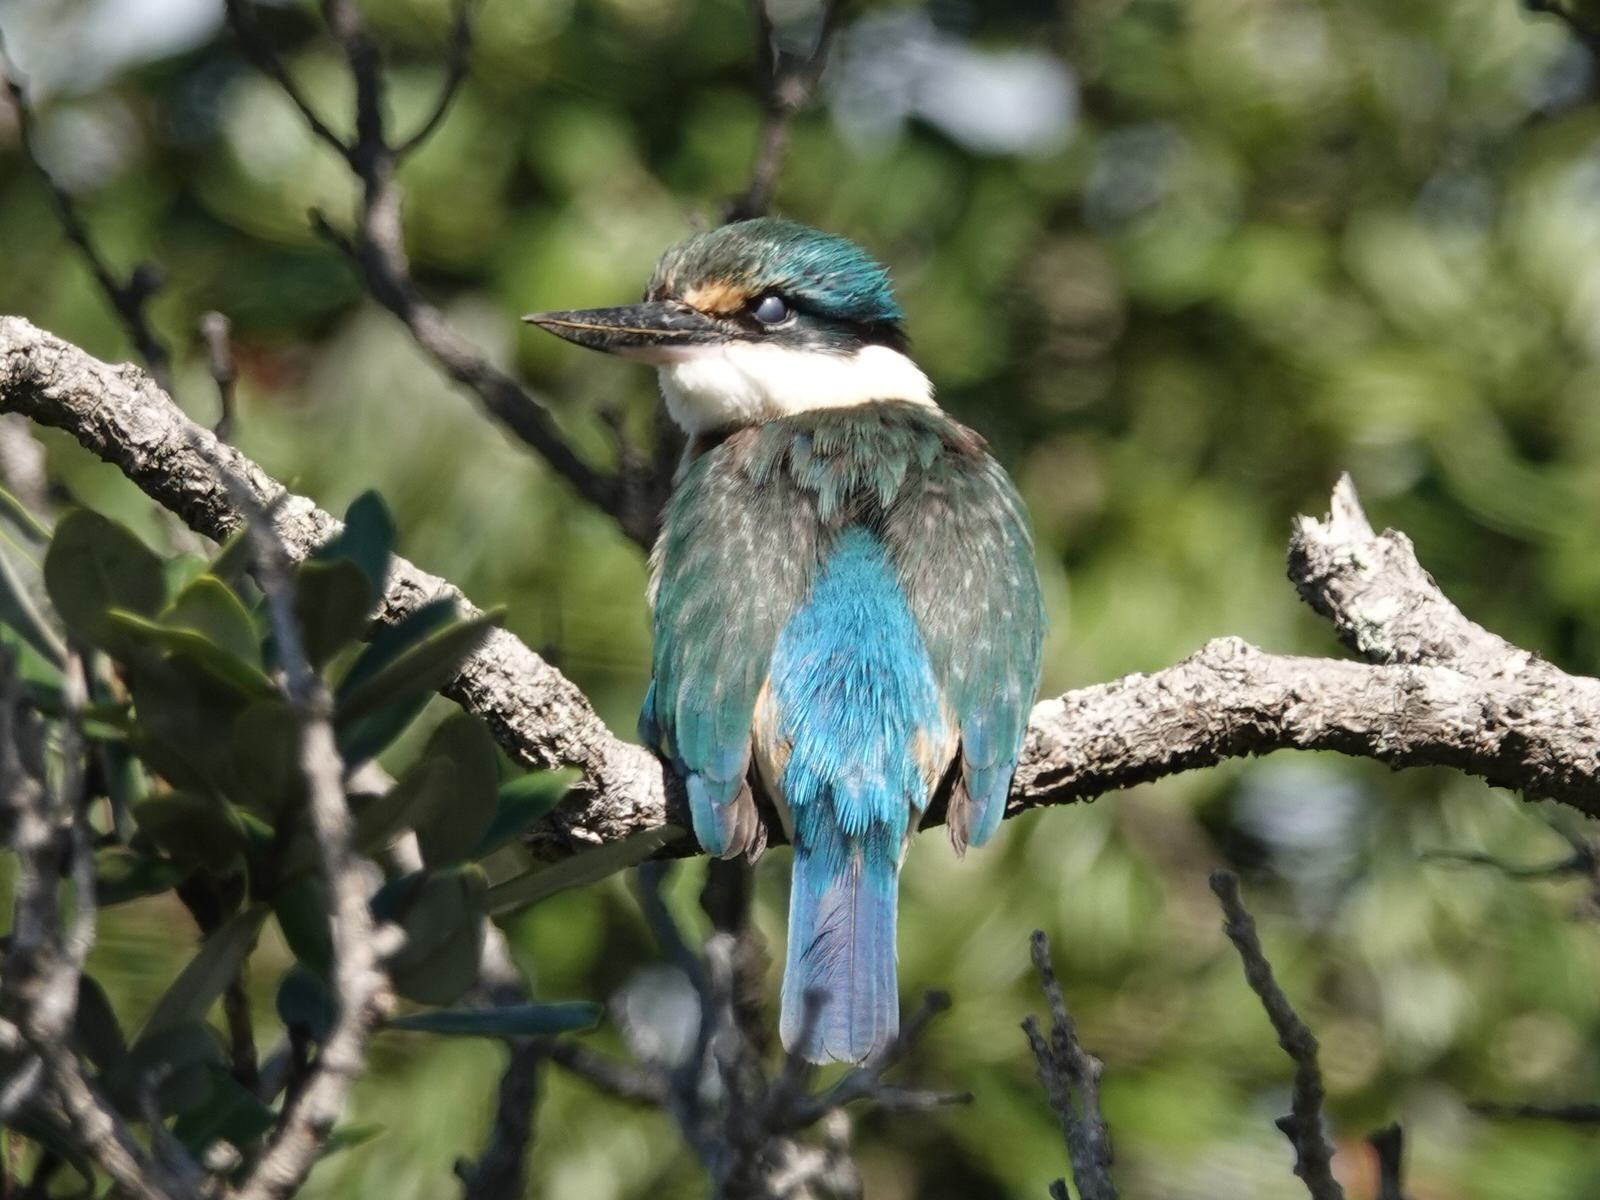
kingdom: Animalia
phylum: Chordata
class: Aves
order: Coraciiformes
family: Alcedinidae
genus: Todiramphus
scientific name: Todiramphus sanctus
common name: Sacred kingfisher
